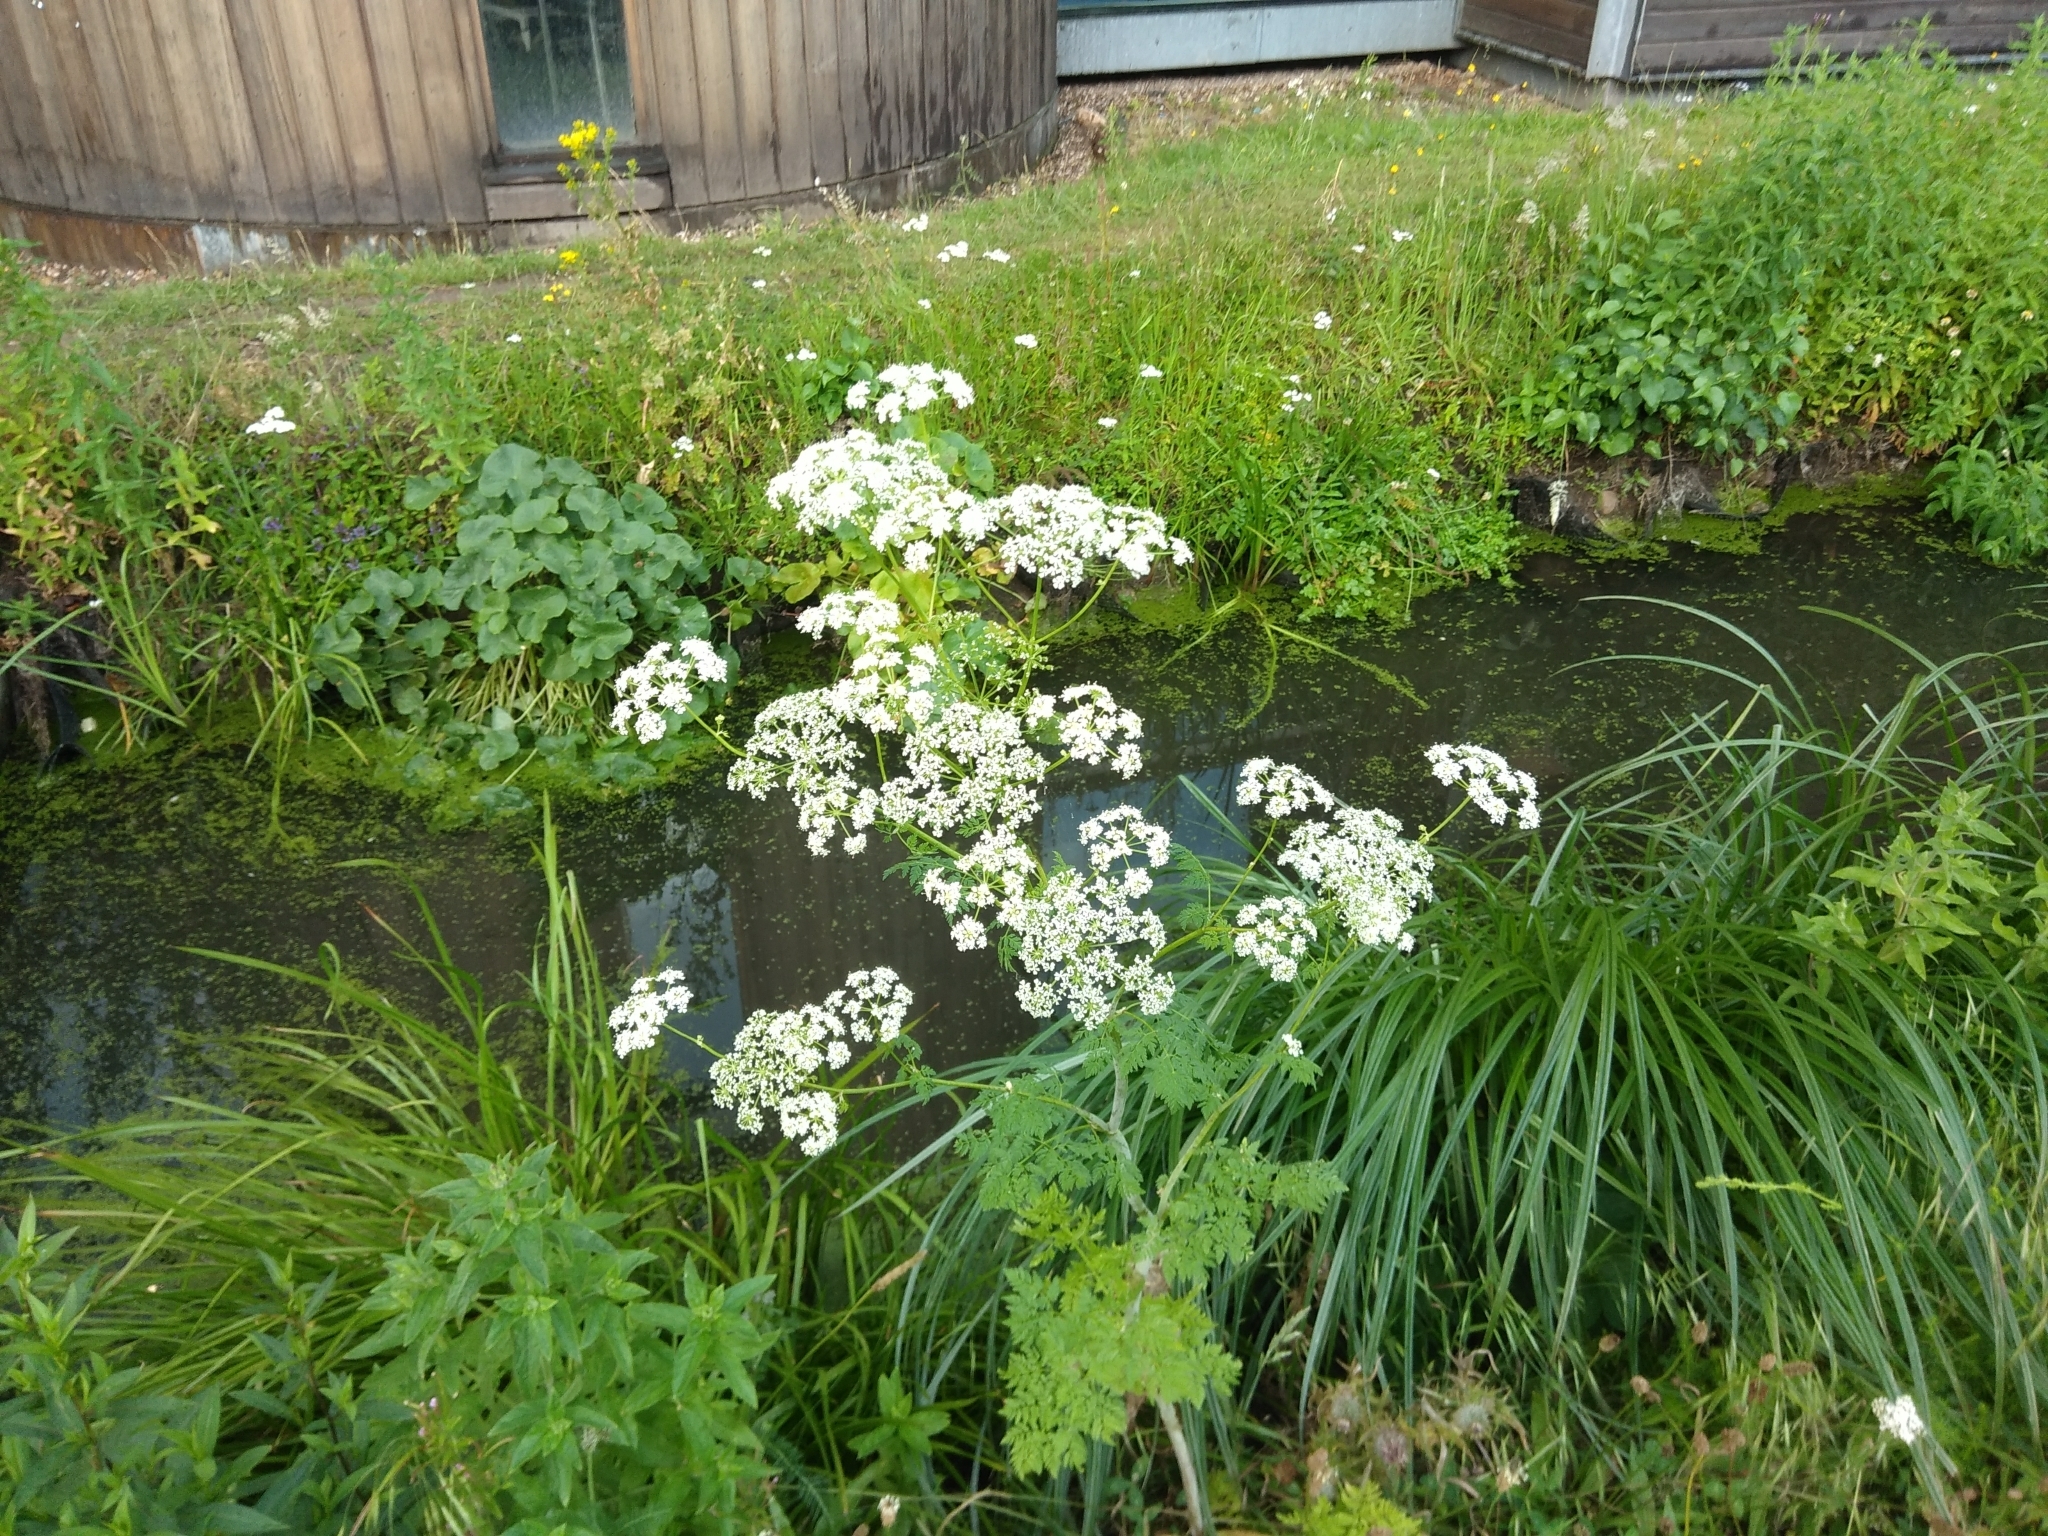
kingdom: Plantae
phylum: Tracheophyta
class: Magnoliopsida
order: Apiales
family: Apiaceae
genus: Conium
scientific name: Conium maculatum
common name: Hemlock
